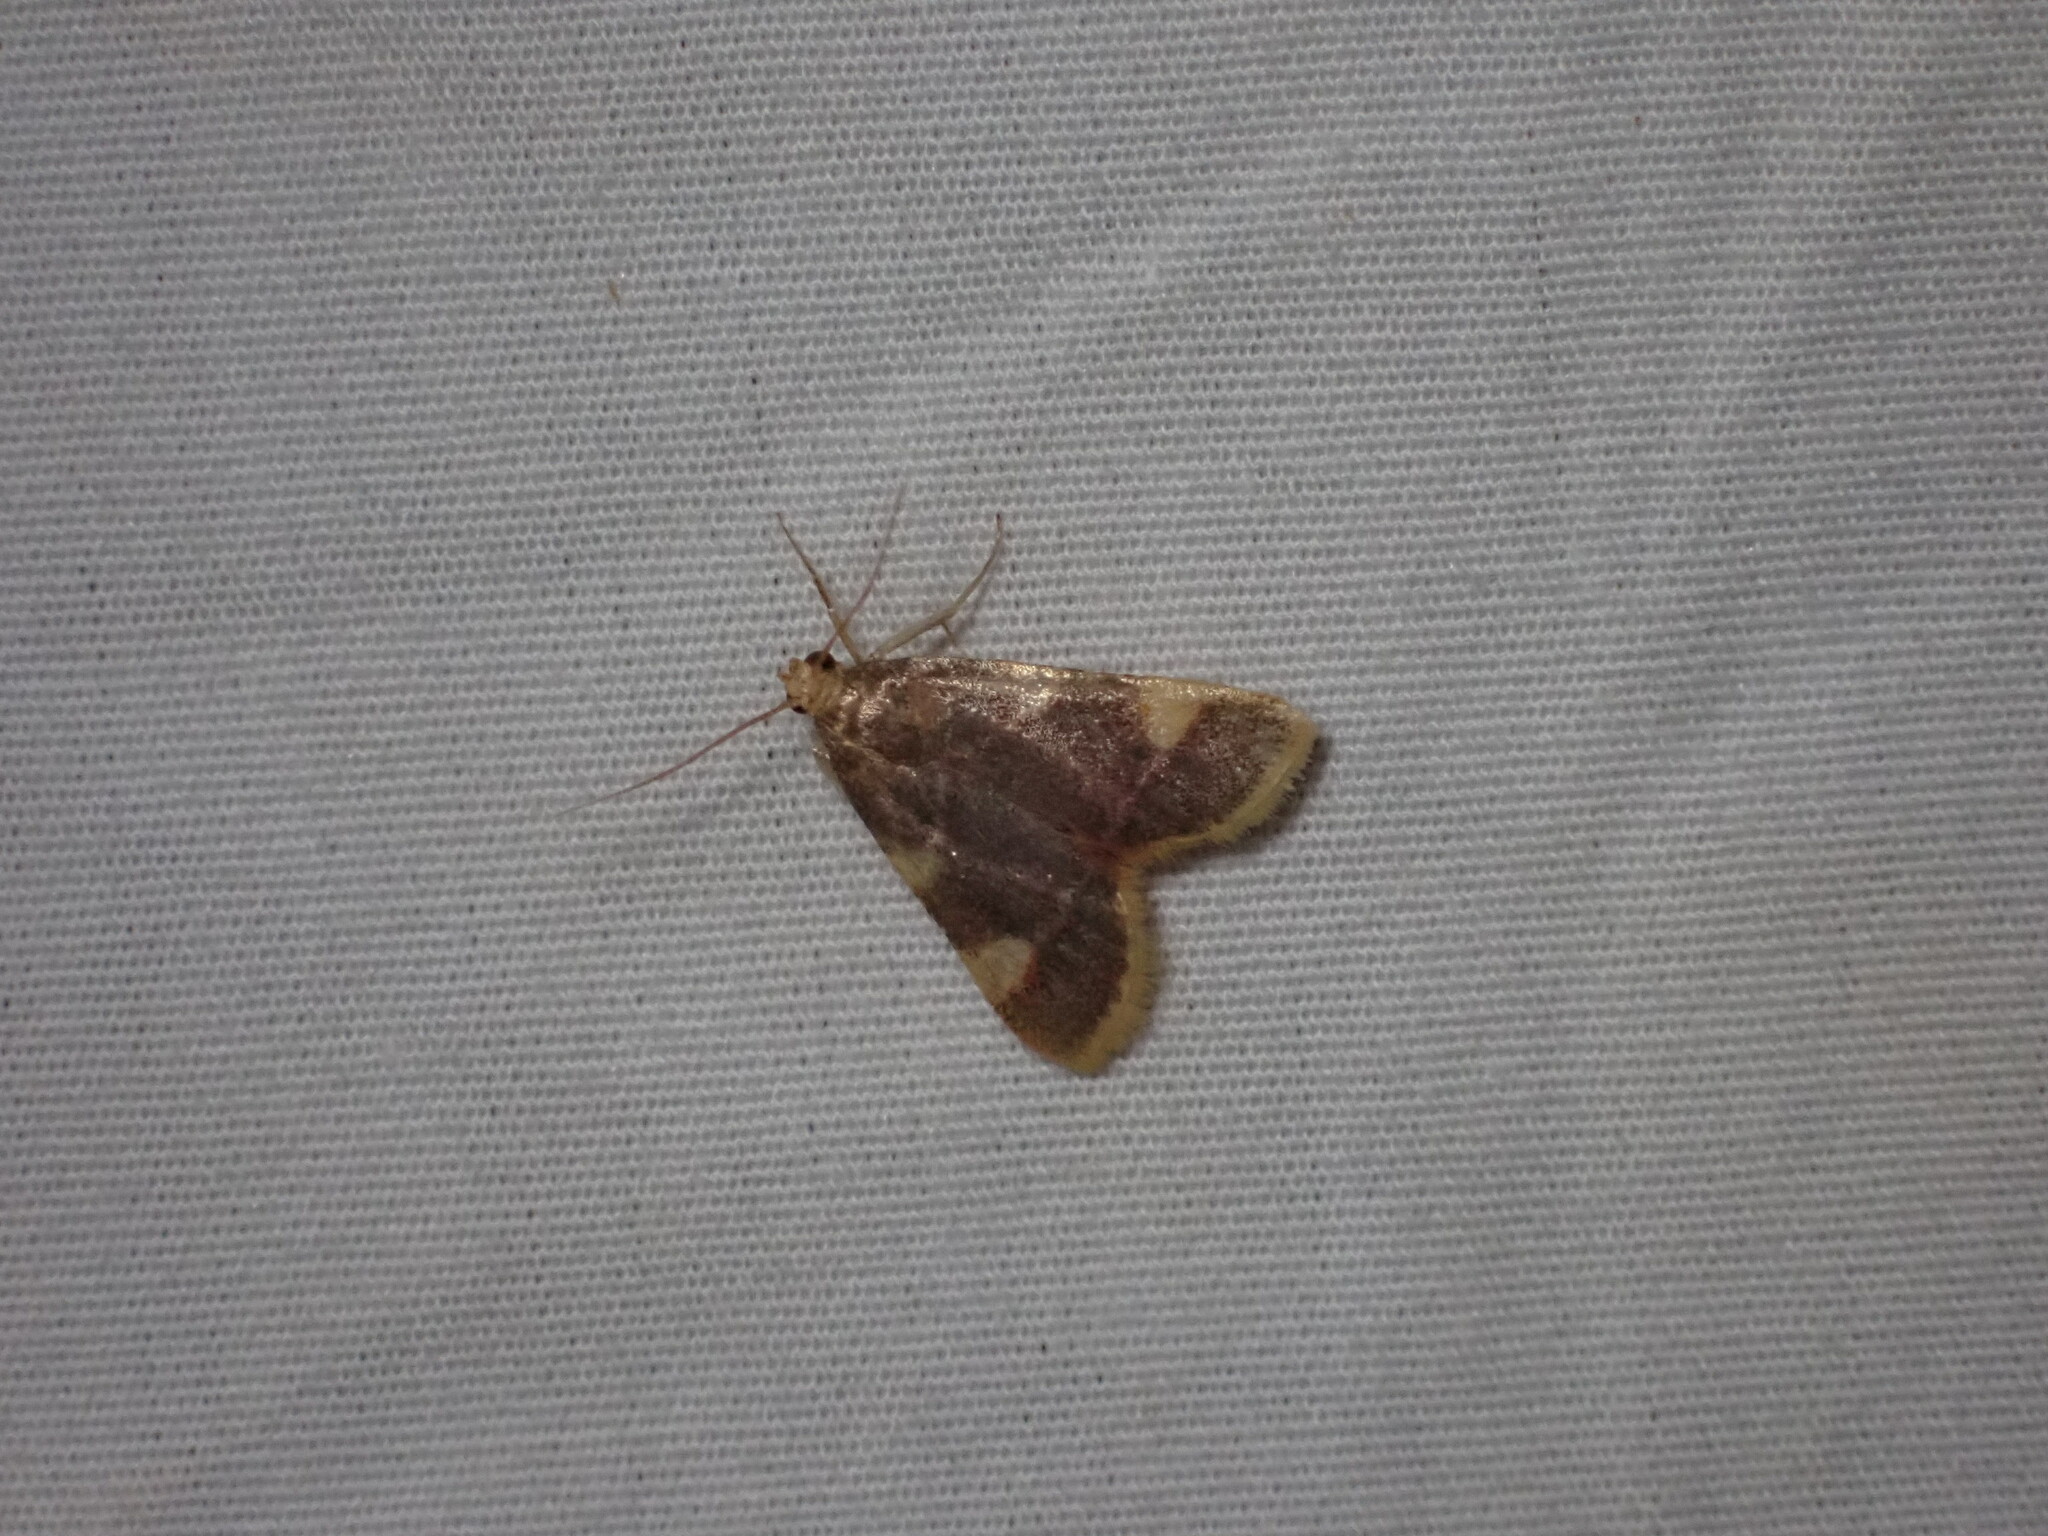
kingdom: Animalia
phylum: Arthropoda
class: Insecta
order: Lepidoptera
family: Pyralidae
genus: Hypsopygia
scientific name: Hypsopygia costalis
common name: Gold triangle
